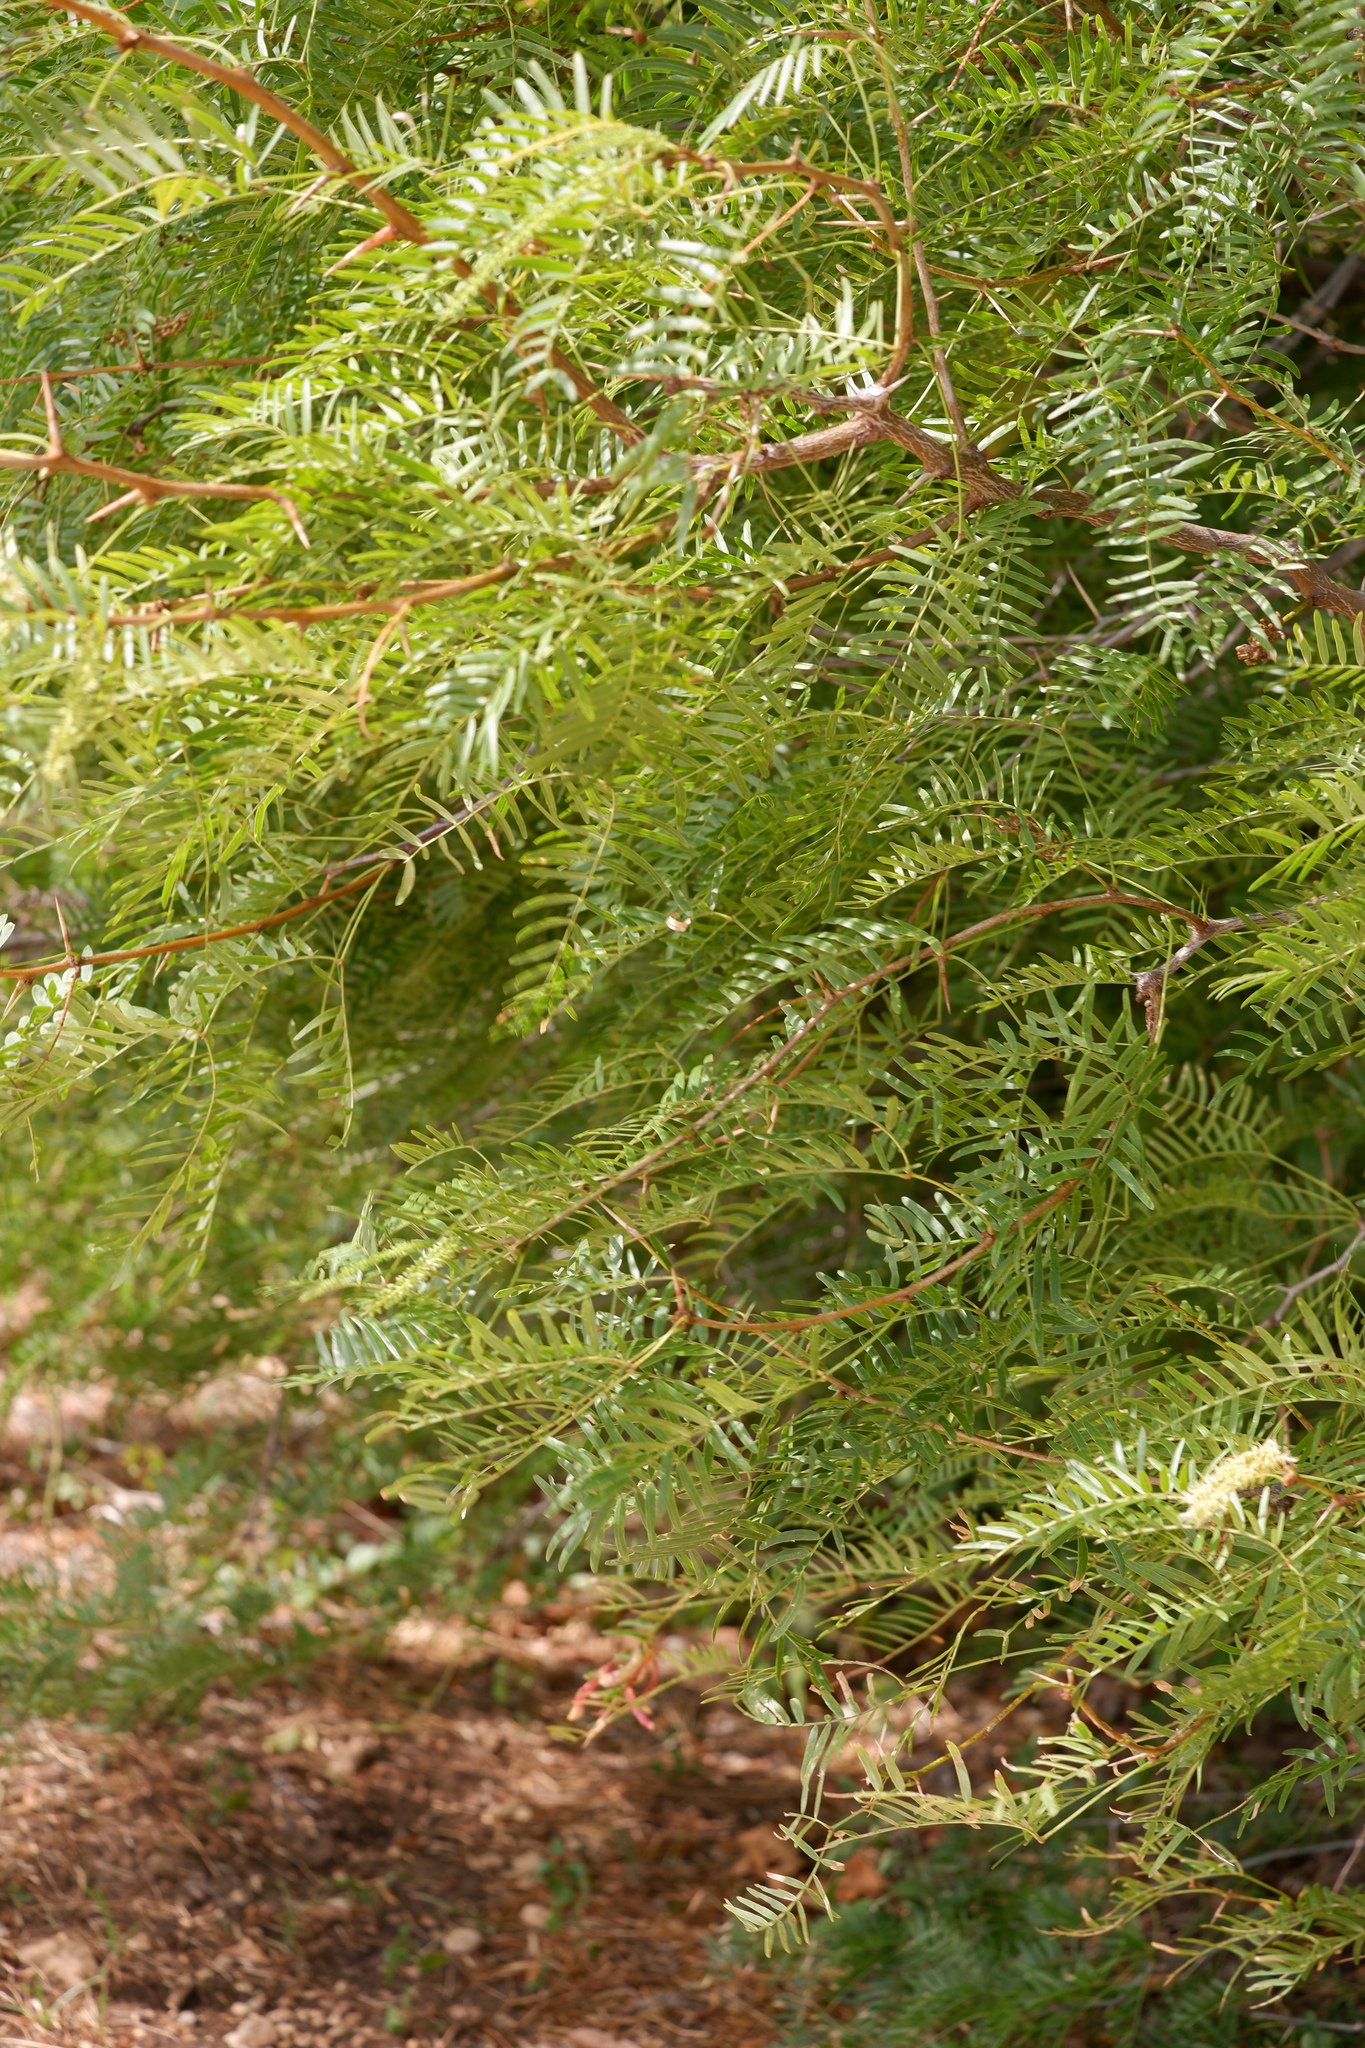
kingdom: Plantae
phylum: Tracheophyta
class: Magnoliopsida
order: Fabales
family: Fabaceae
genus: Prosopis
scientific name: Prosopis glandulosa
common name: Honey mesquite
